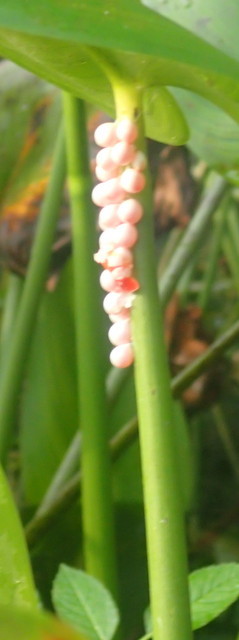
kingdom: Animalia
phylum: Mollusca
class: Gastropoda
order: Architaenioglossa
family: Ampullariidae
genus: Pomacea
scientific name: Pomacea paludosa
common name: Florida applesnail
